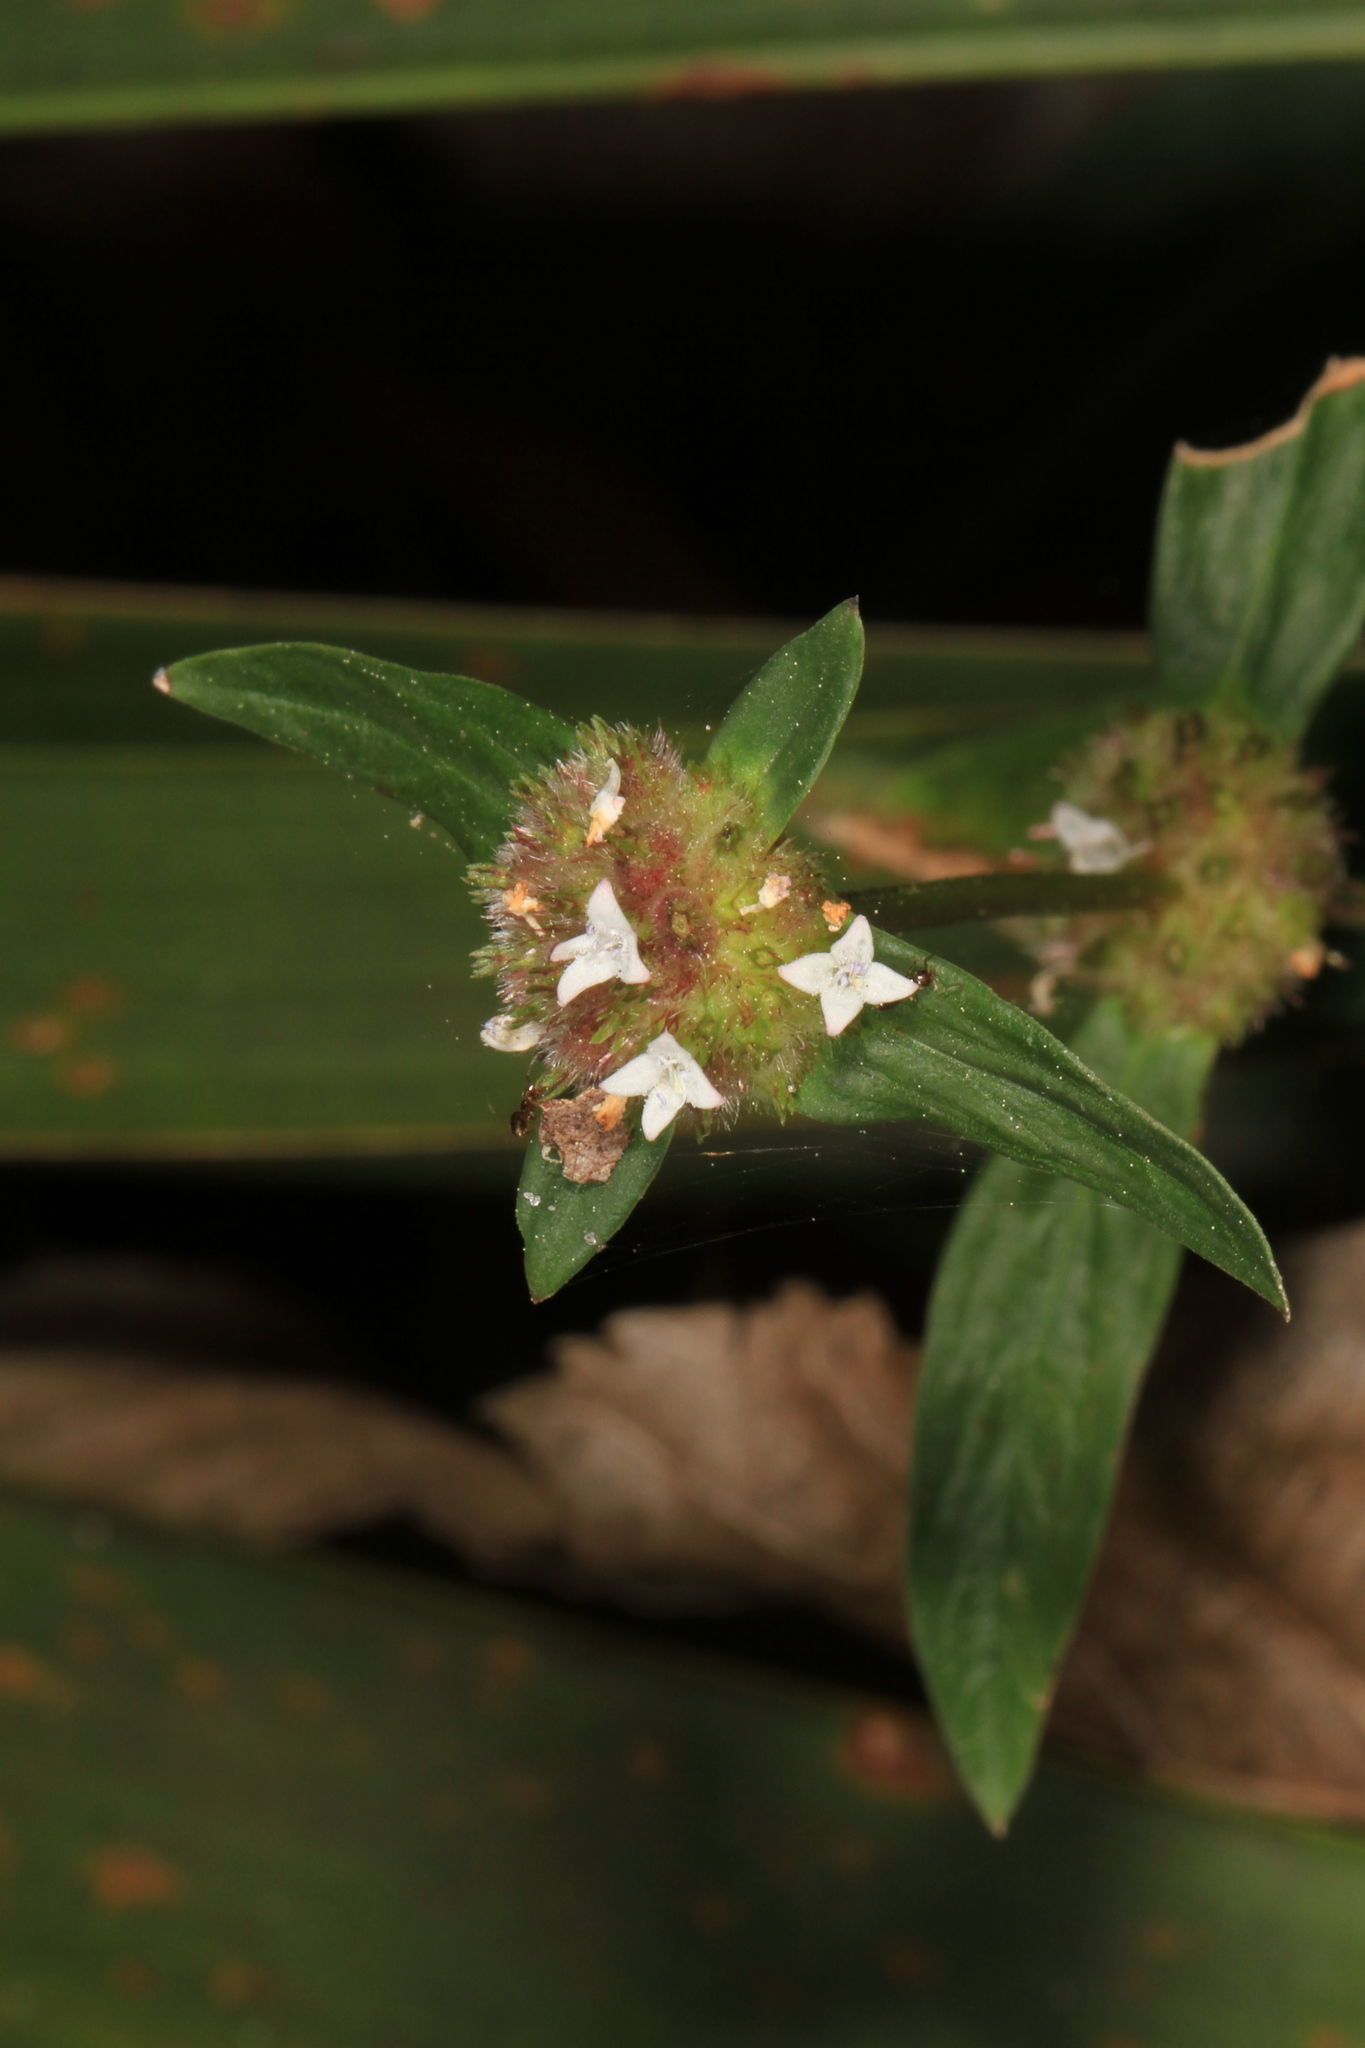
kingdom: Plantae
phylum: Tracheophyta
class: Magnoliopsida
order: Gentianales
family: Rubiaceae
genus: Spermacoce
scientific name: Spermacoce remota
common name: Woodland false buttonweed
